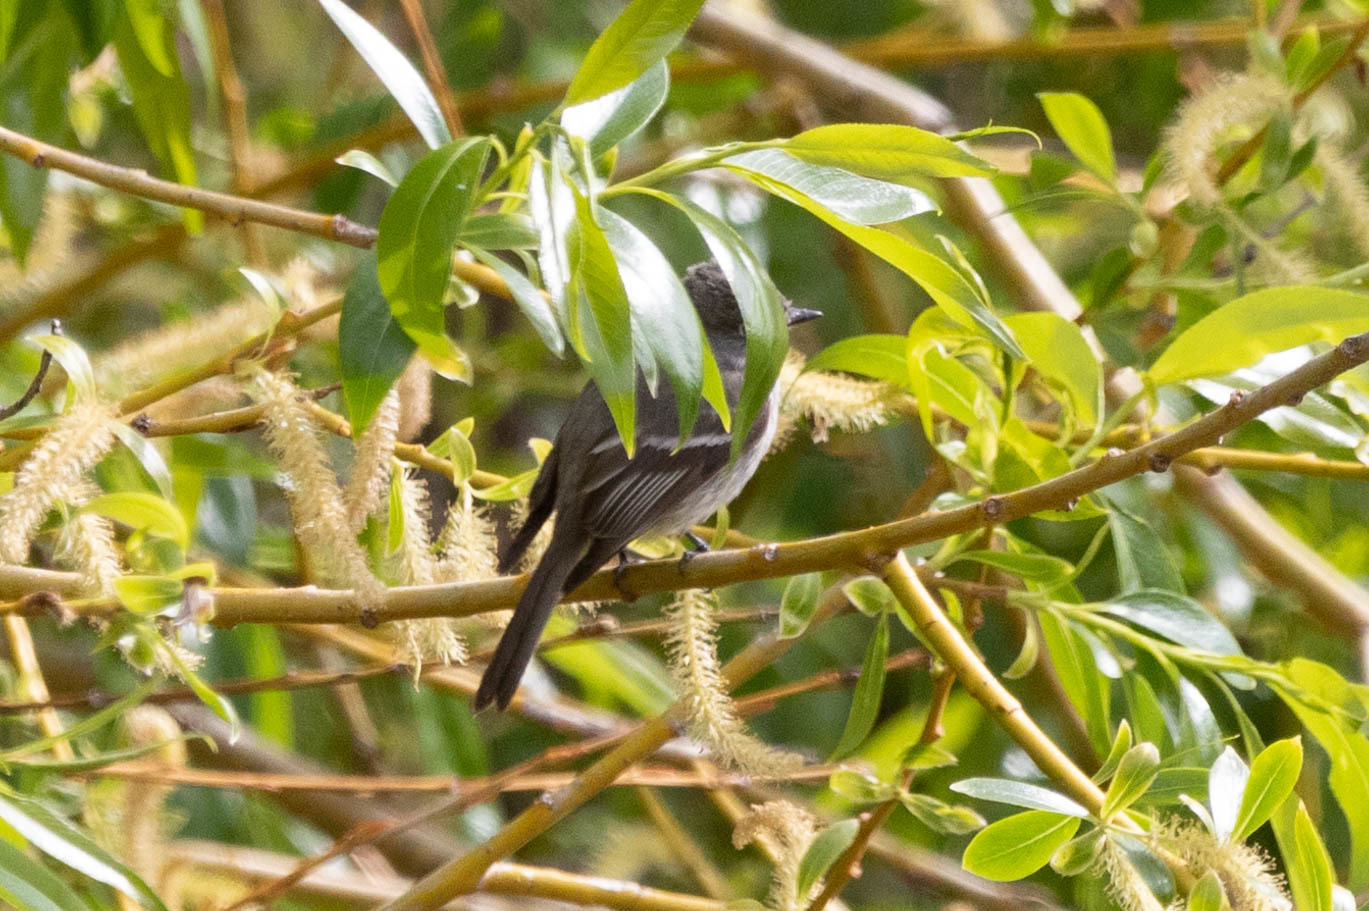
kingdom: Animalia
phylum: Chordata
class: Aves
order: Passeriformes
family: Tyrannidae
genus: Empidonax
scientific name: Empidonax hammondii
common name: Hammond's flycatcher
